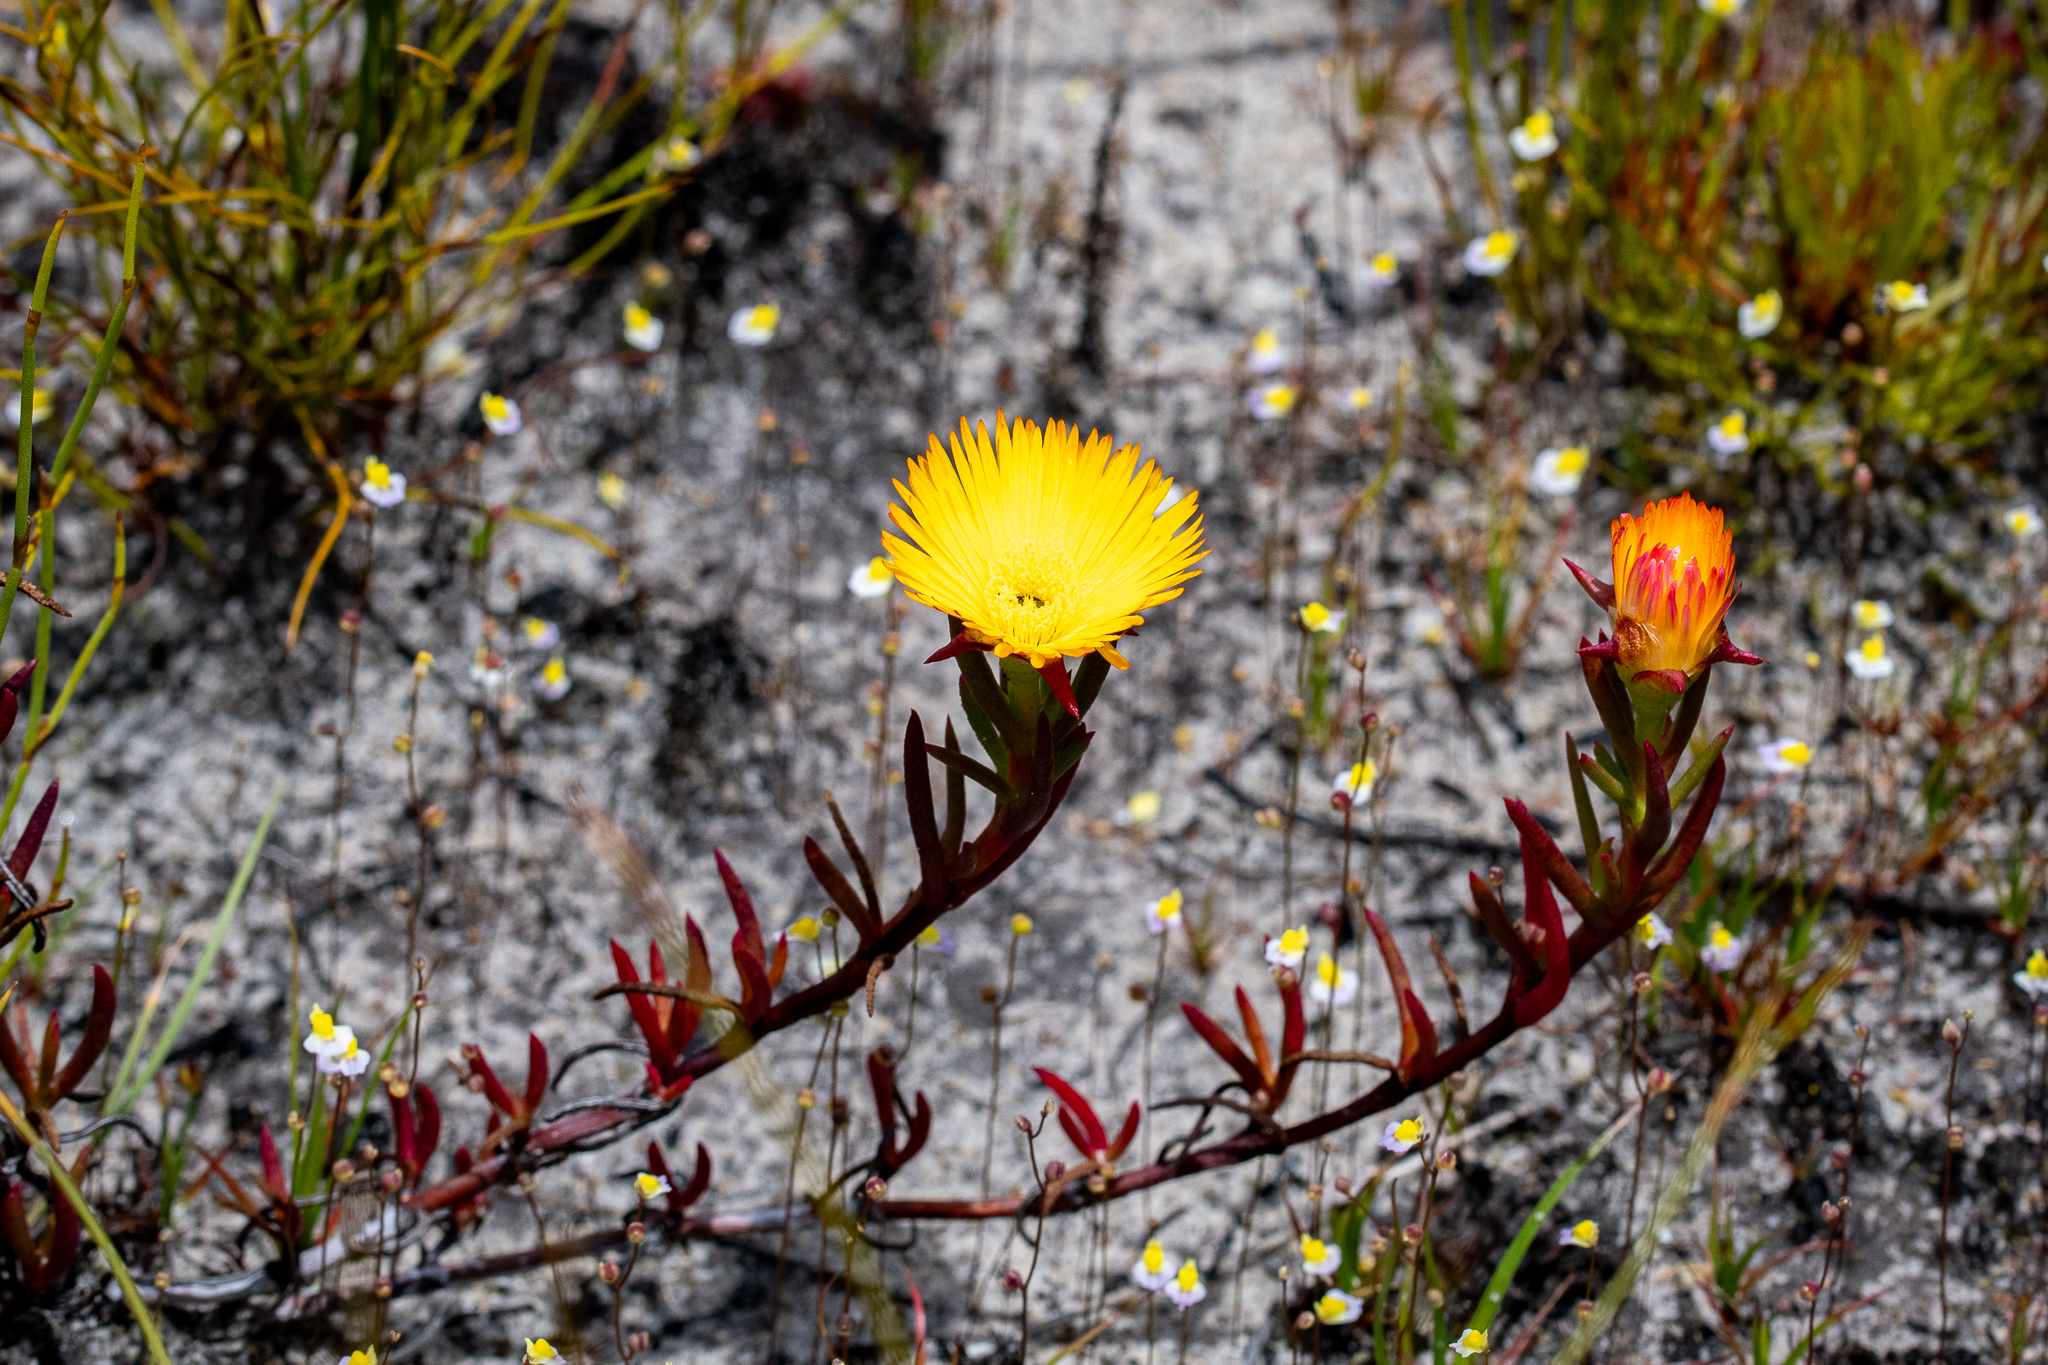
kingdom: Plantae
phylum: Tracheophyta
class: Magnoliopsida
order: Caryophyllales
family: Aizoaceae
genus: Lampranthus
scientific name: Lampranthus bicolor
